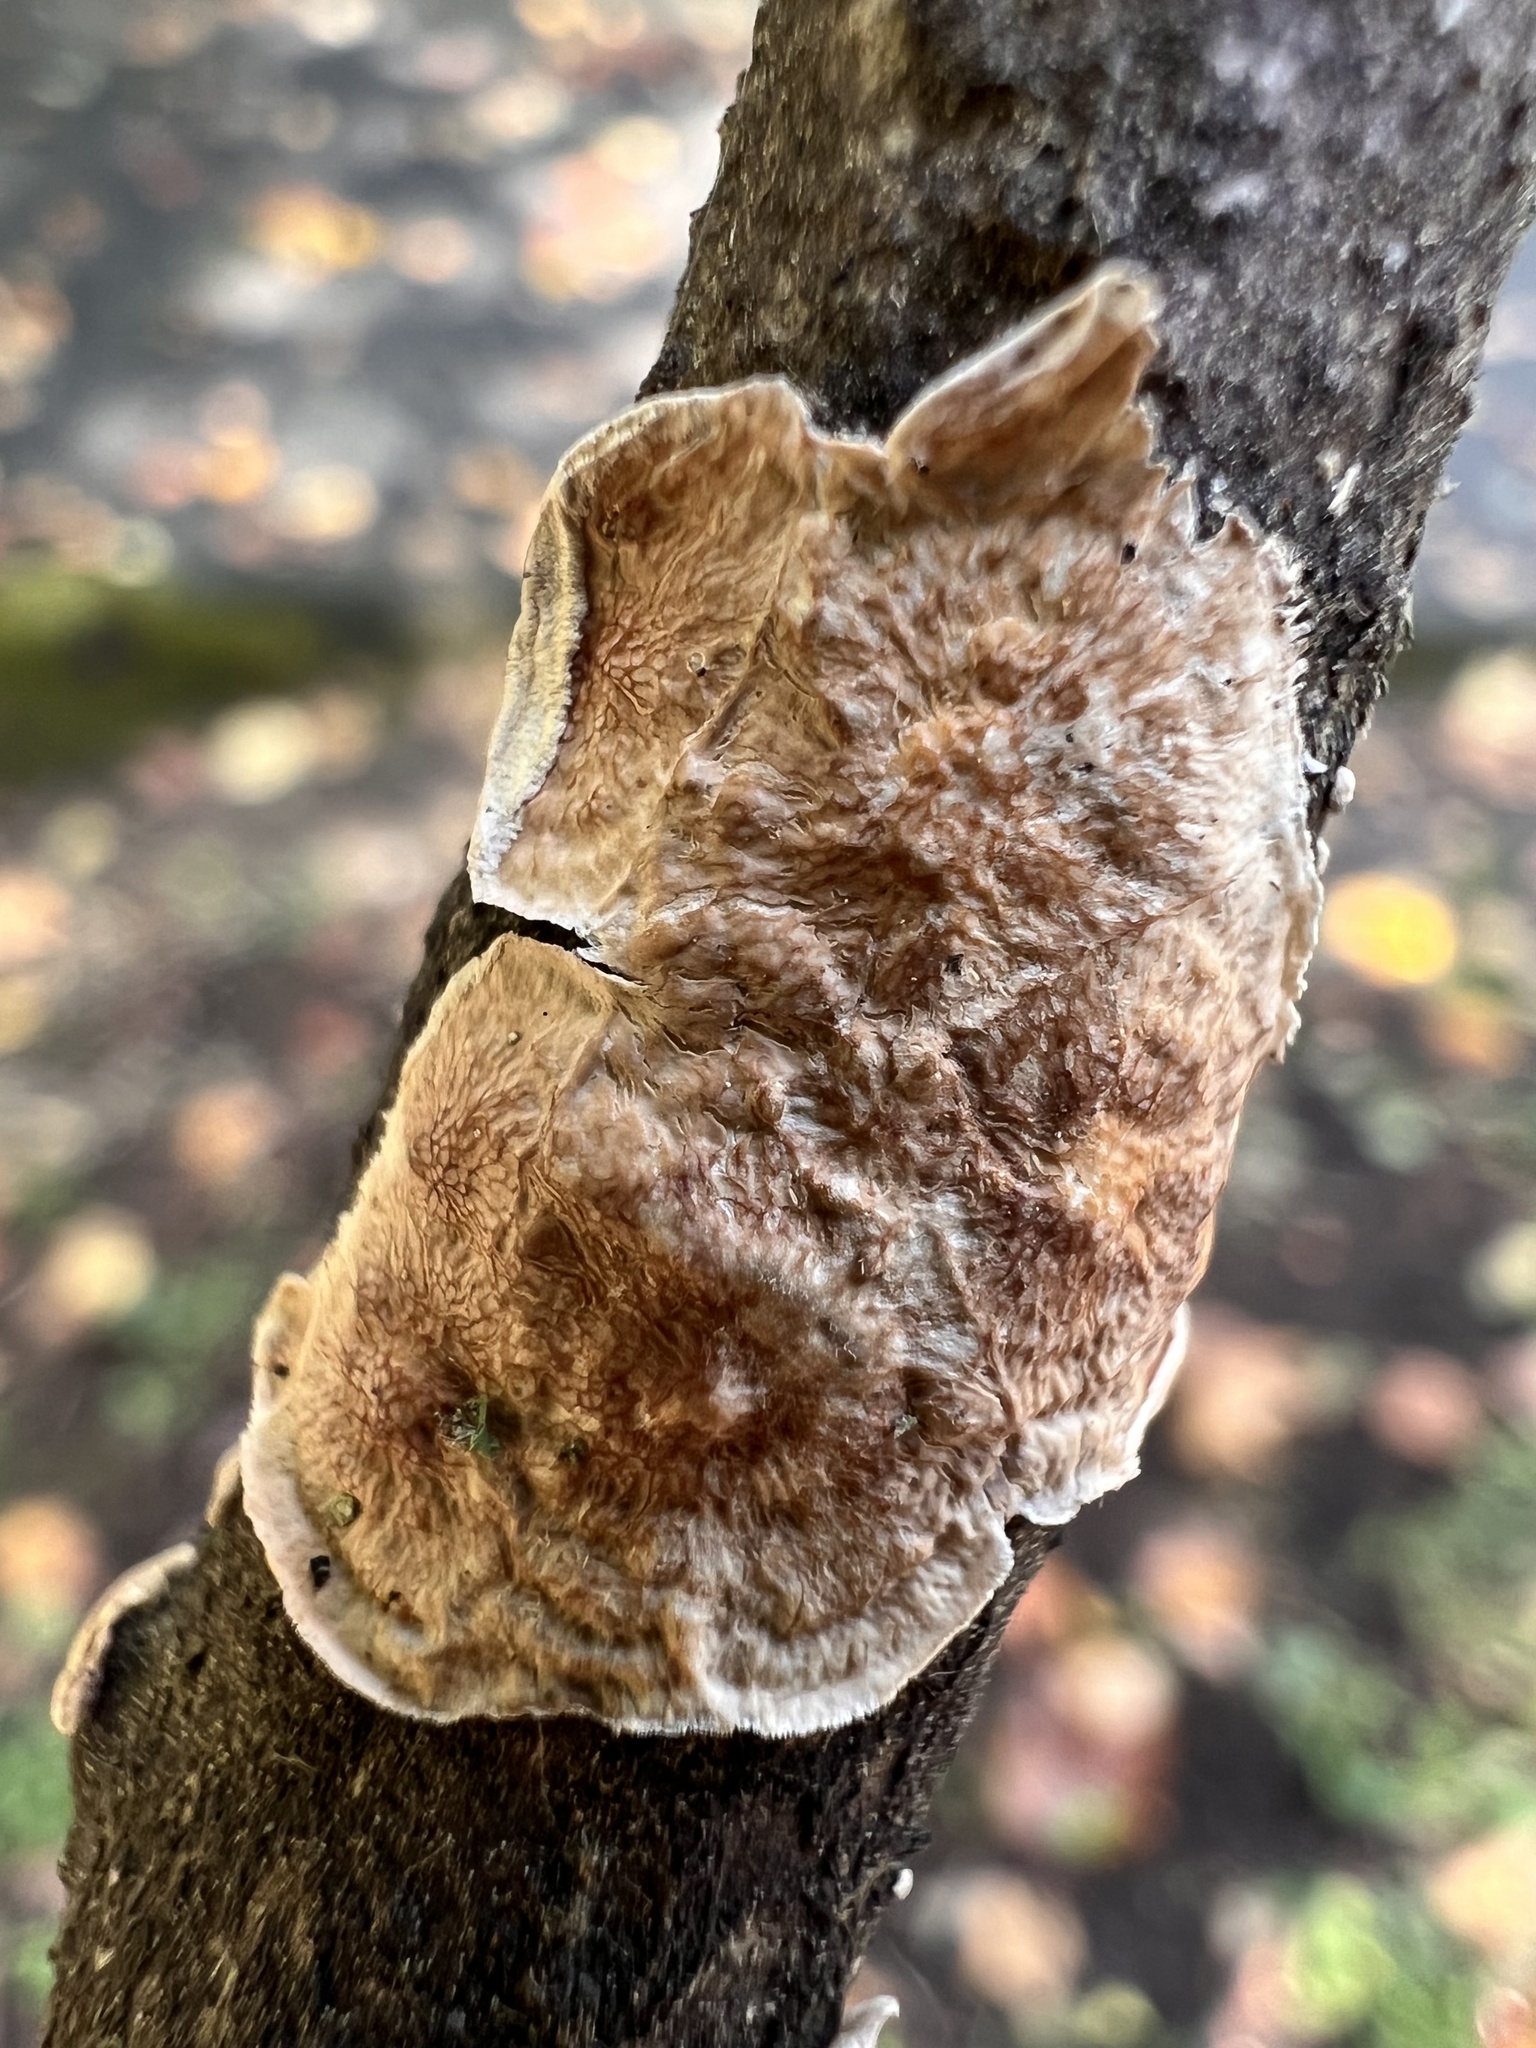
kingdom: Fungi
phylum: Basidiomycota
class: Agaricomycetes
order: Polyporales
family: Irpicaceae
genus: Byssomerulius
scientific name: Byssomerulius corium
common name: Netted crust
